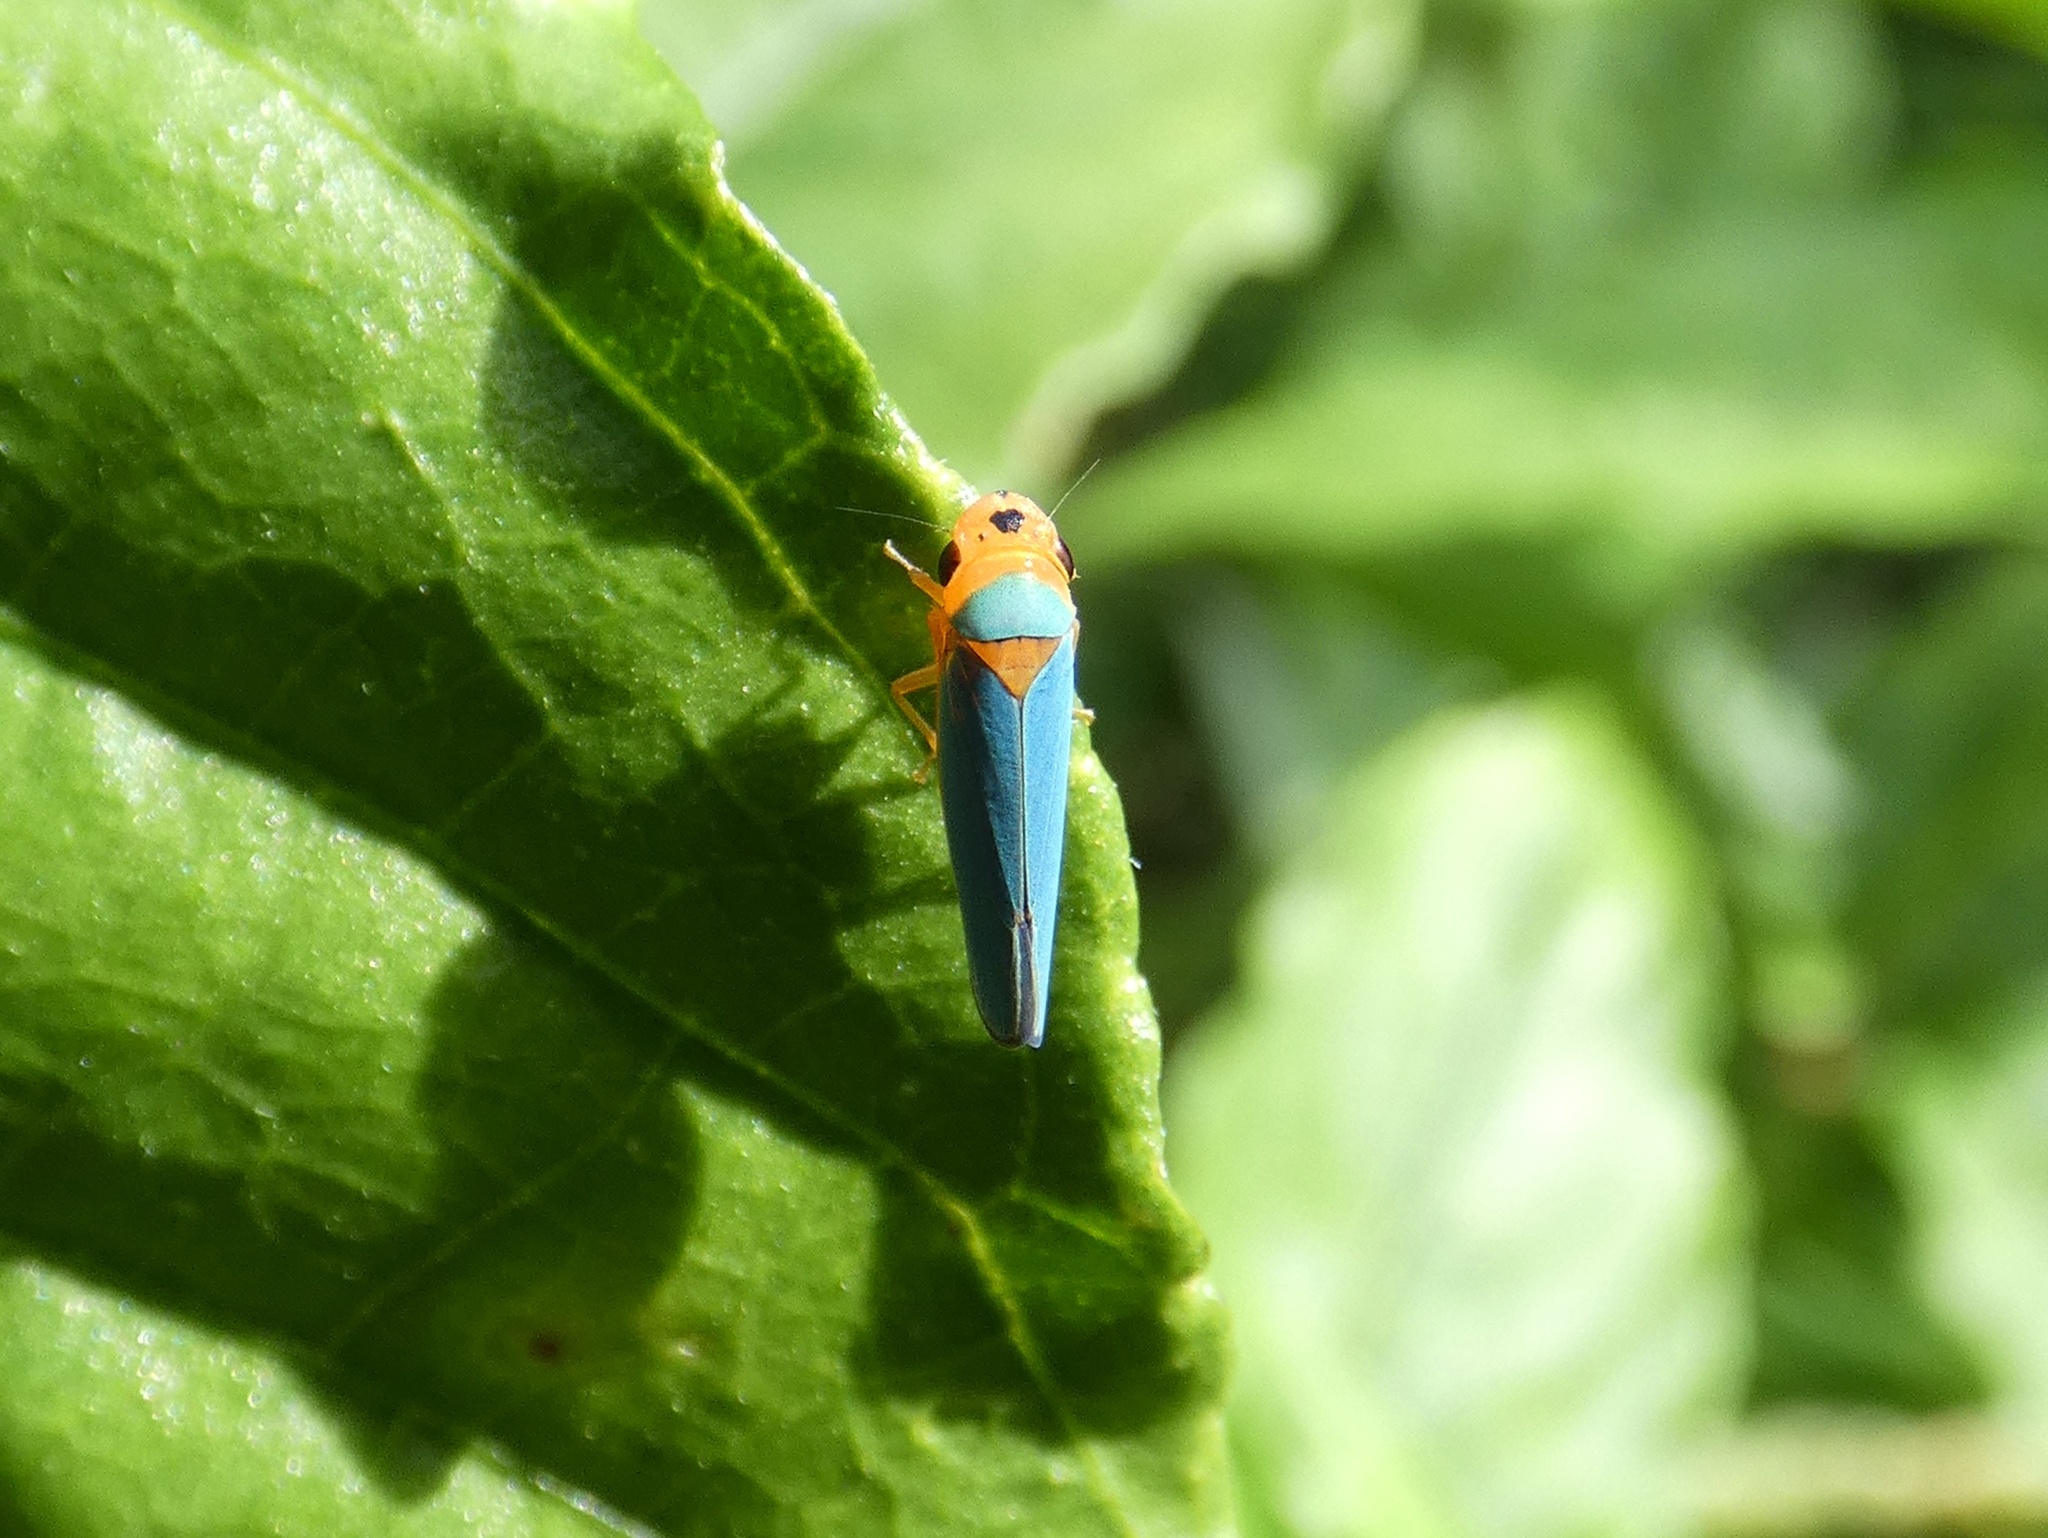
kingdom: Animalia
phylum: Arthropoda
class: Insecta
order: Hemiptera
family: Cicadellidae
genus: Macunolla
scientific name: Macunolla ventralis
